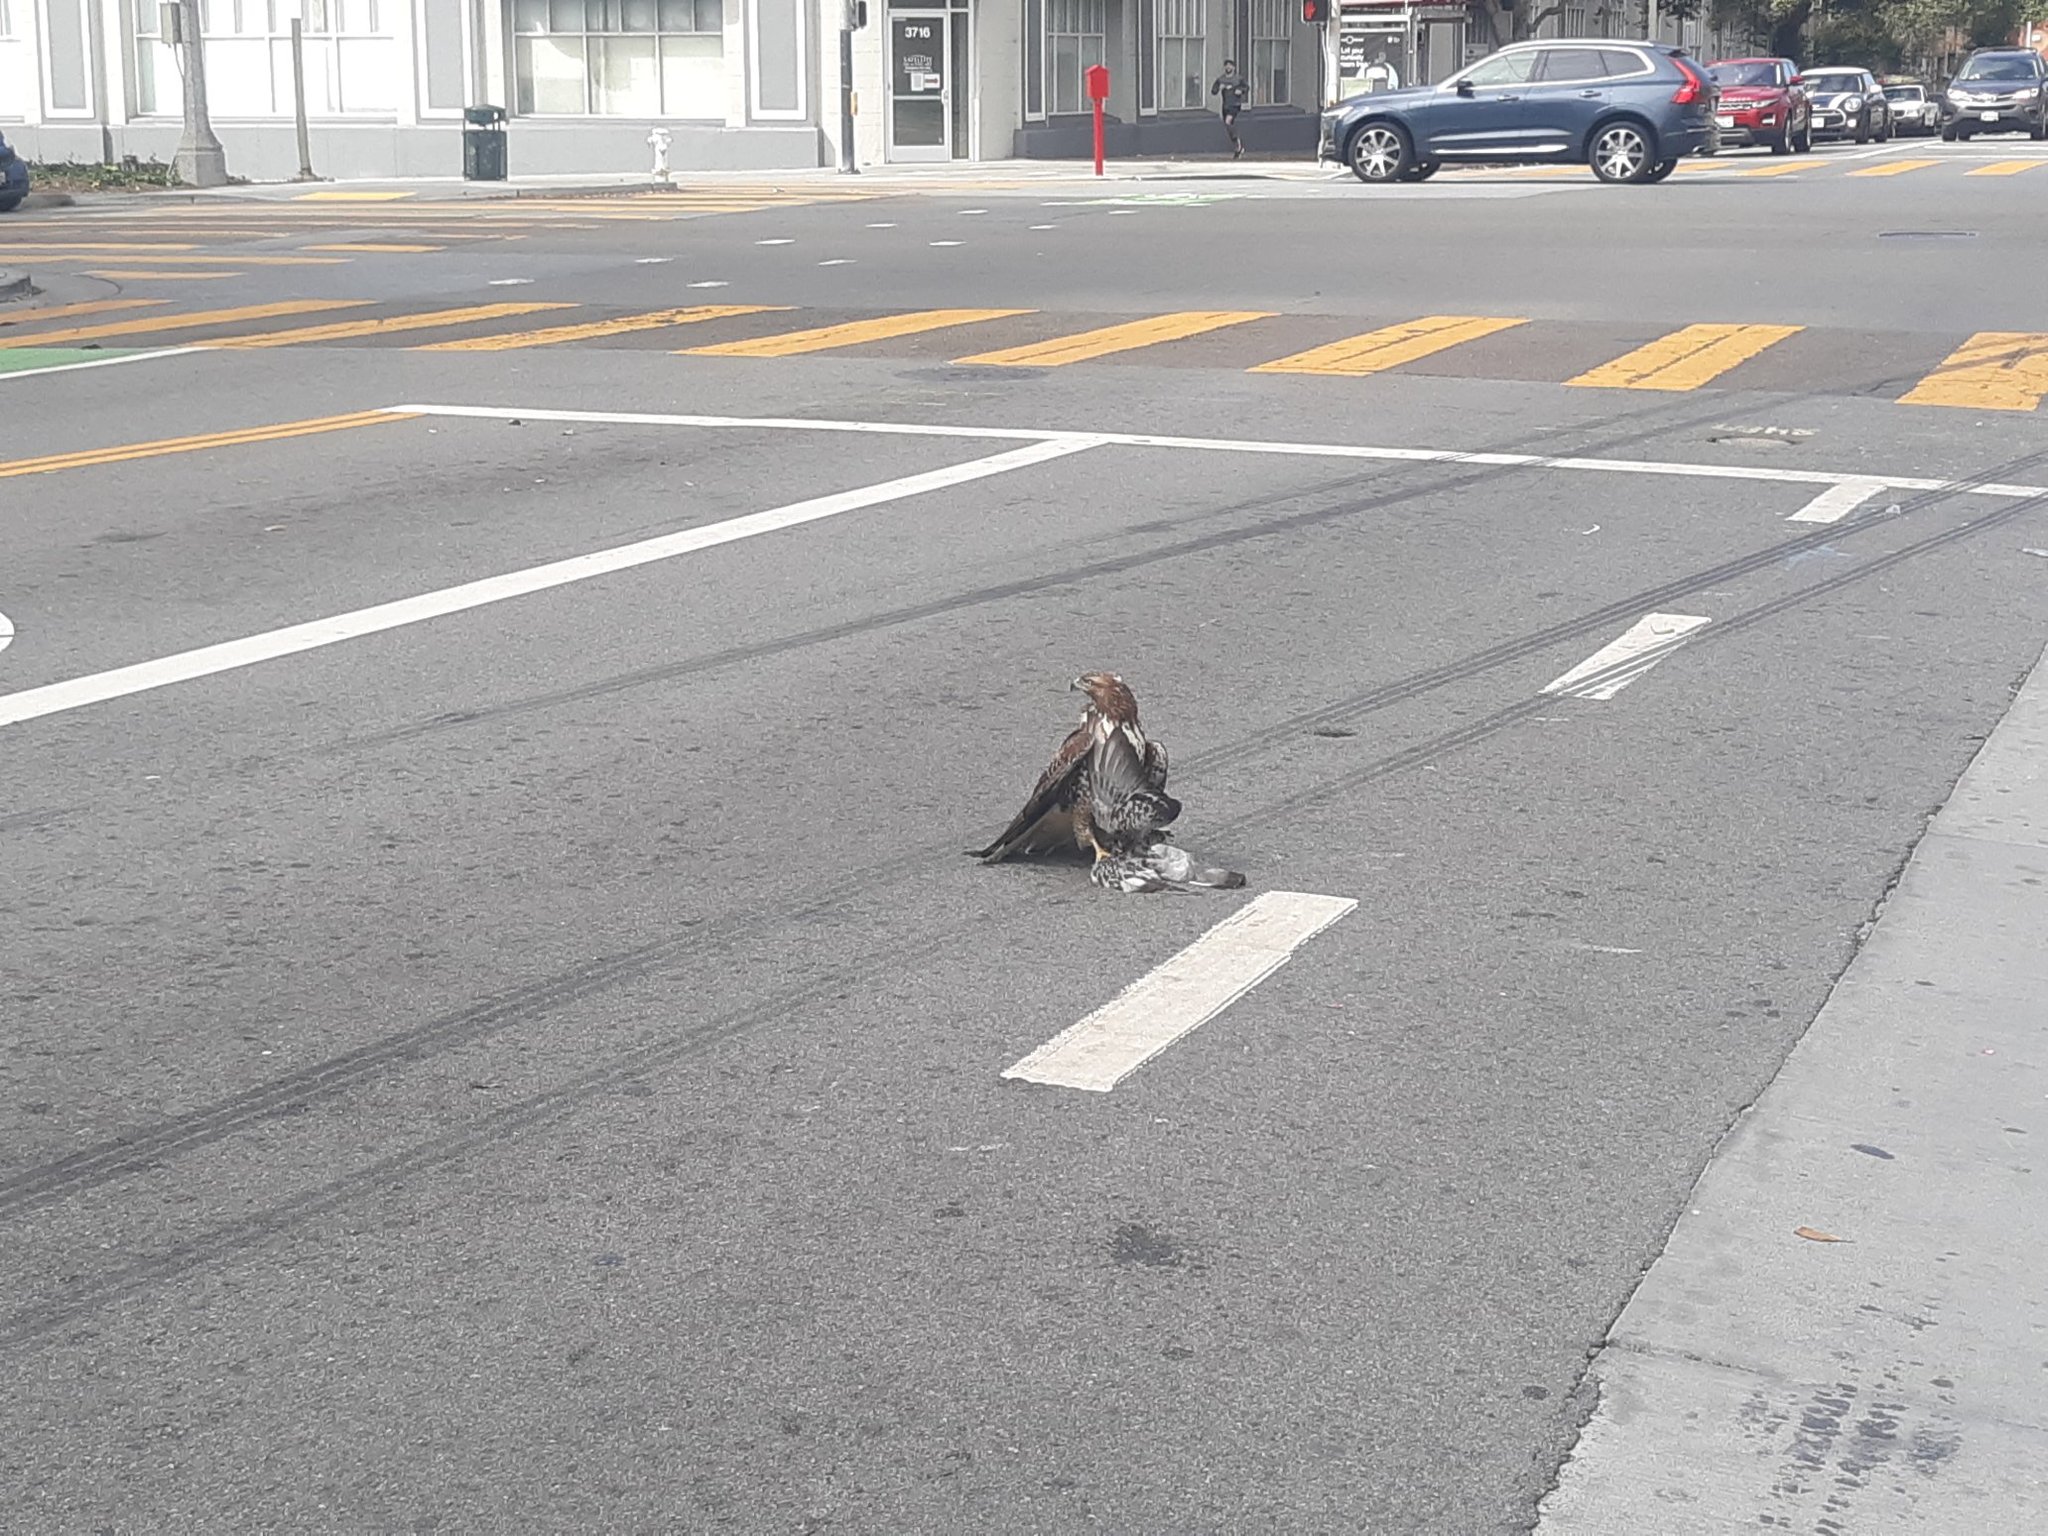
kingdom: Animalia
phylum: Chordata
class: Aves
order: Accipitriformes
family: Accipitridae
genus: Buteo
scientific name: Buteo jamaicensis
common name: Red-tailed hawk
